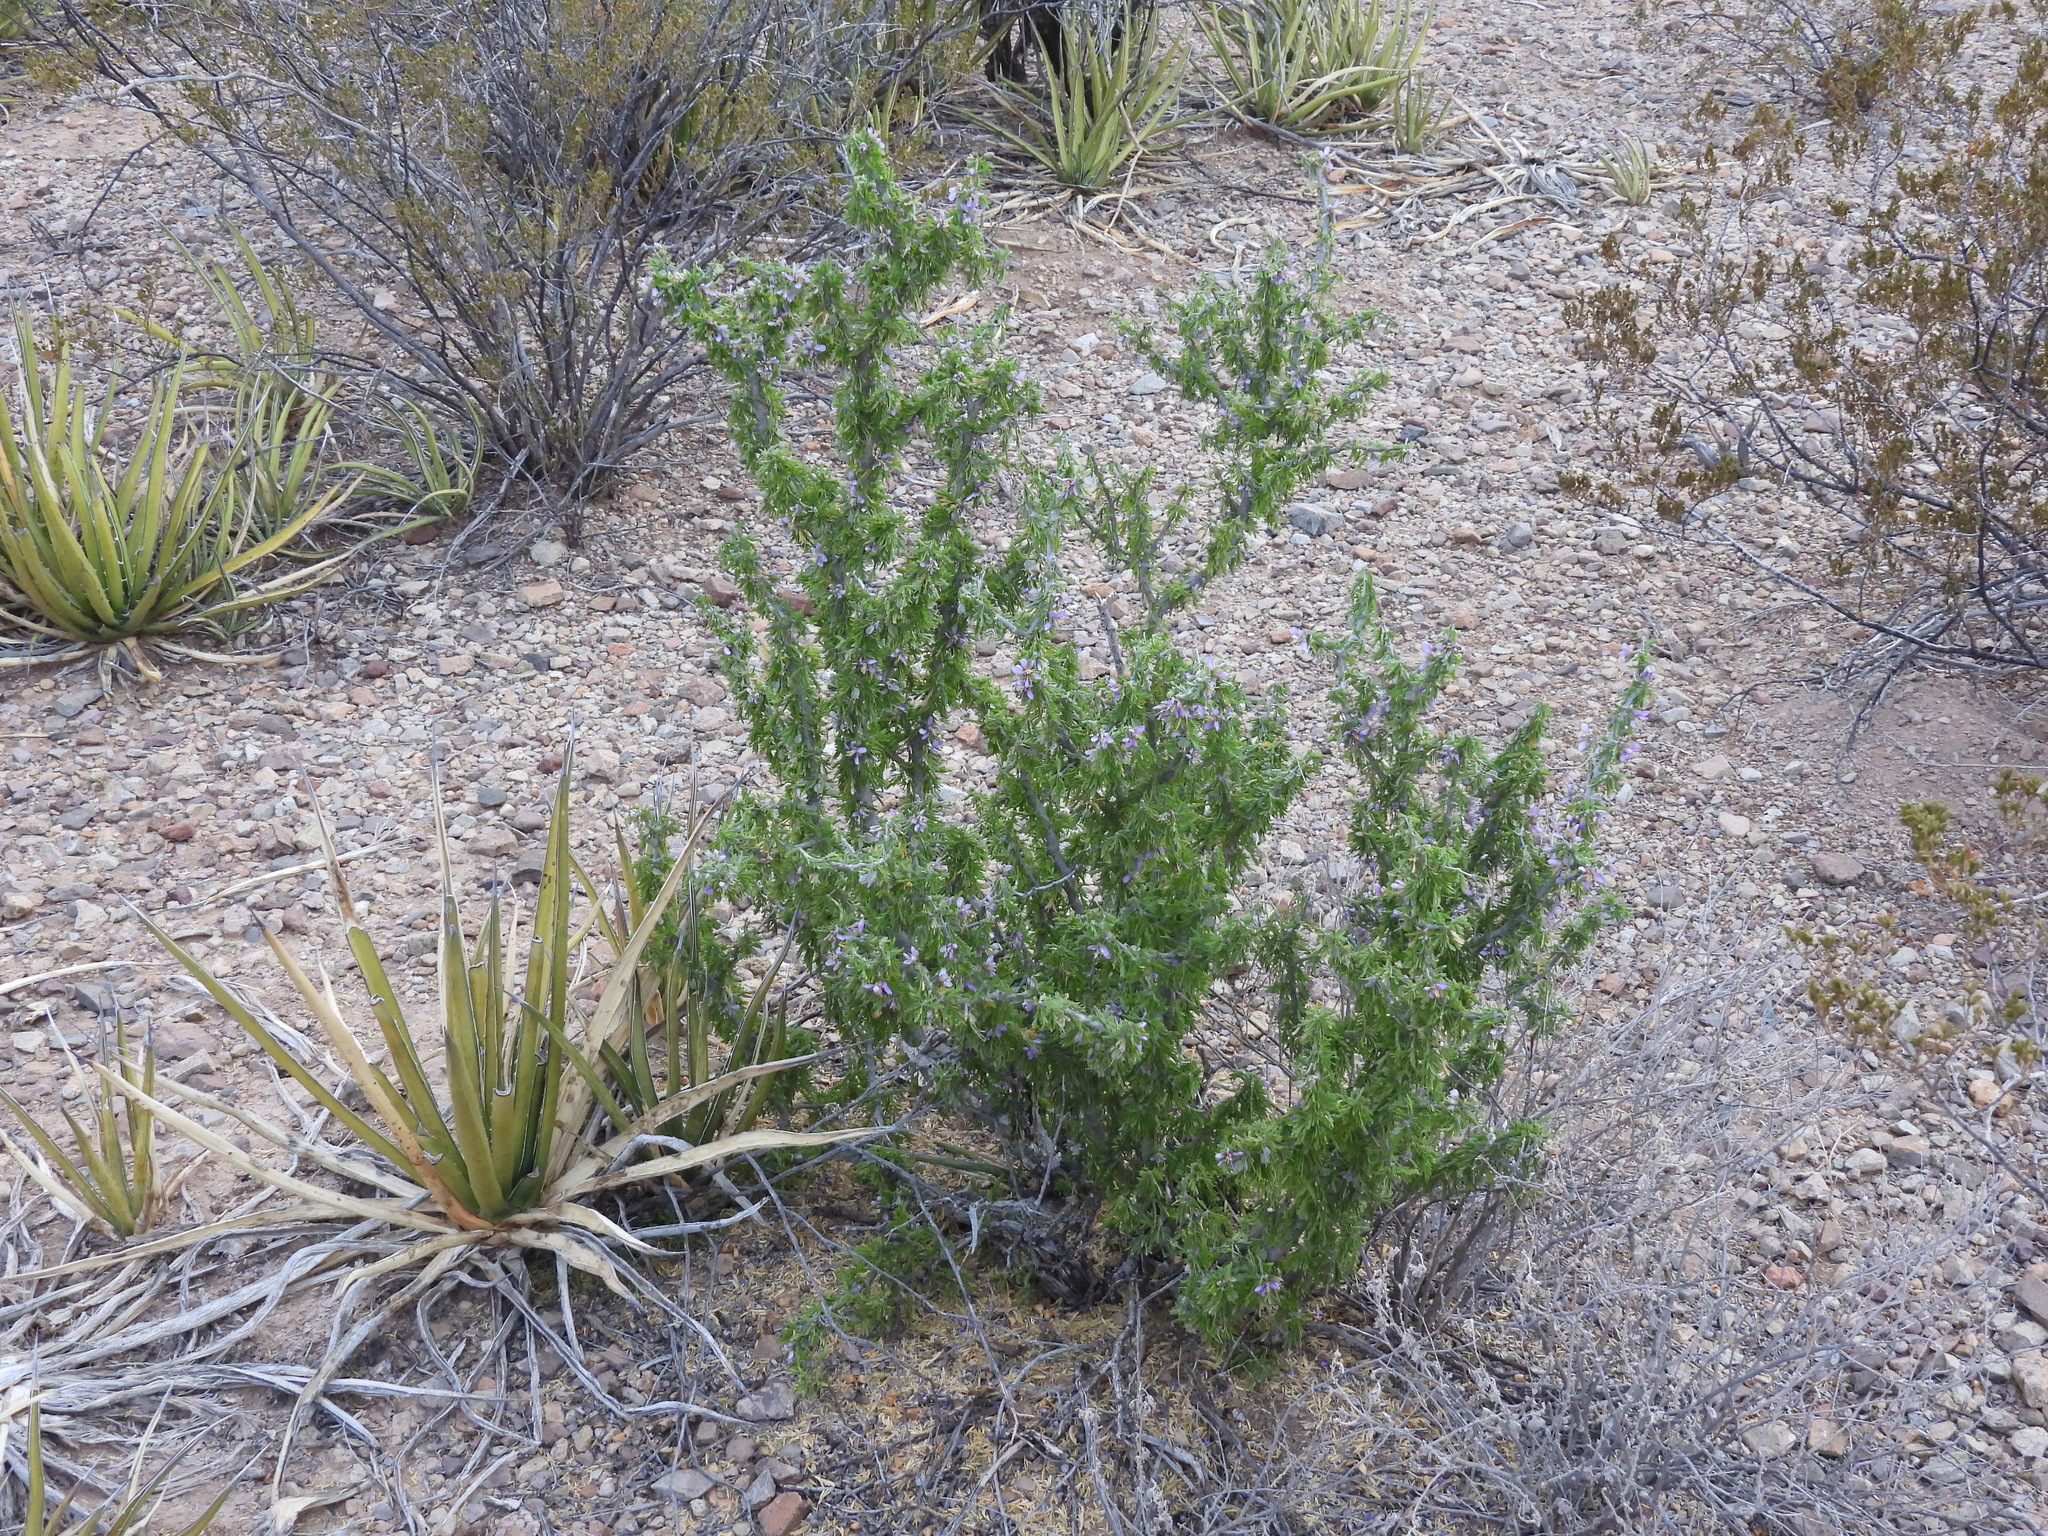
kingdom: Plantae
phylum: Tracheophyta
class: Magnoliopsida
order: Zygophyllales
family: Zygophyllaceae
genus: Porlieria
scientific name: Porlieria angustifolia
